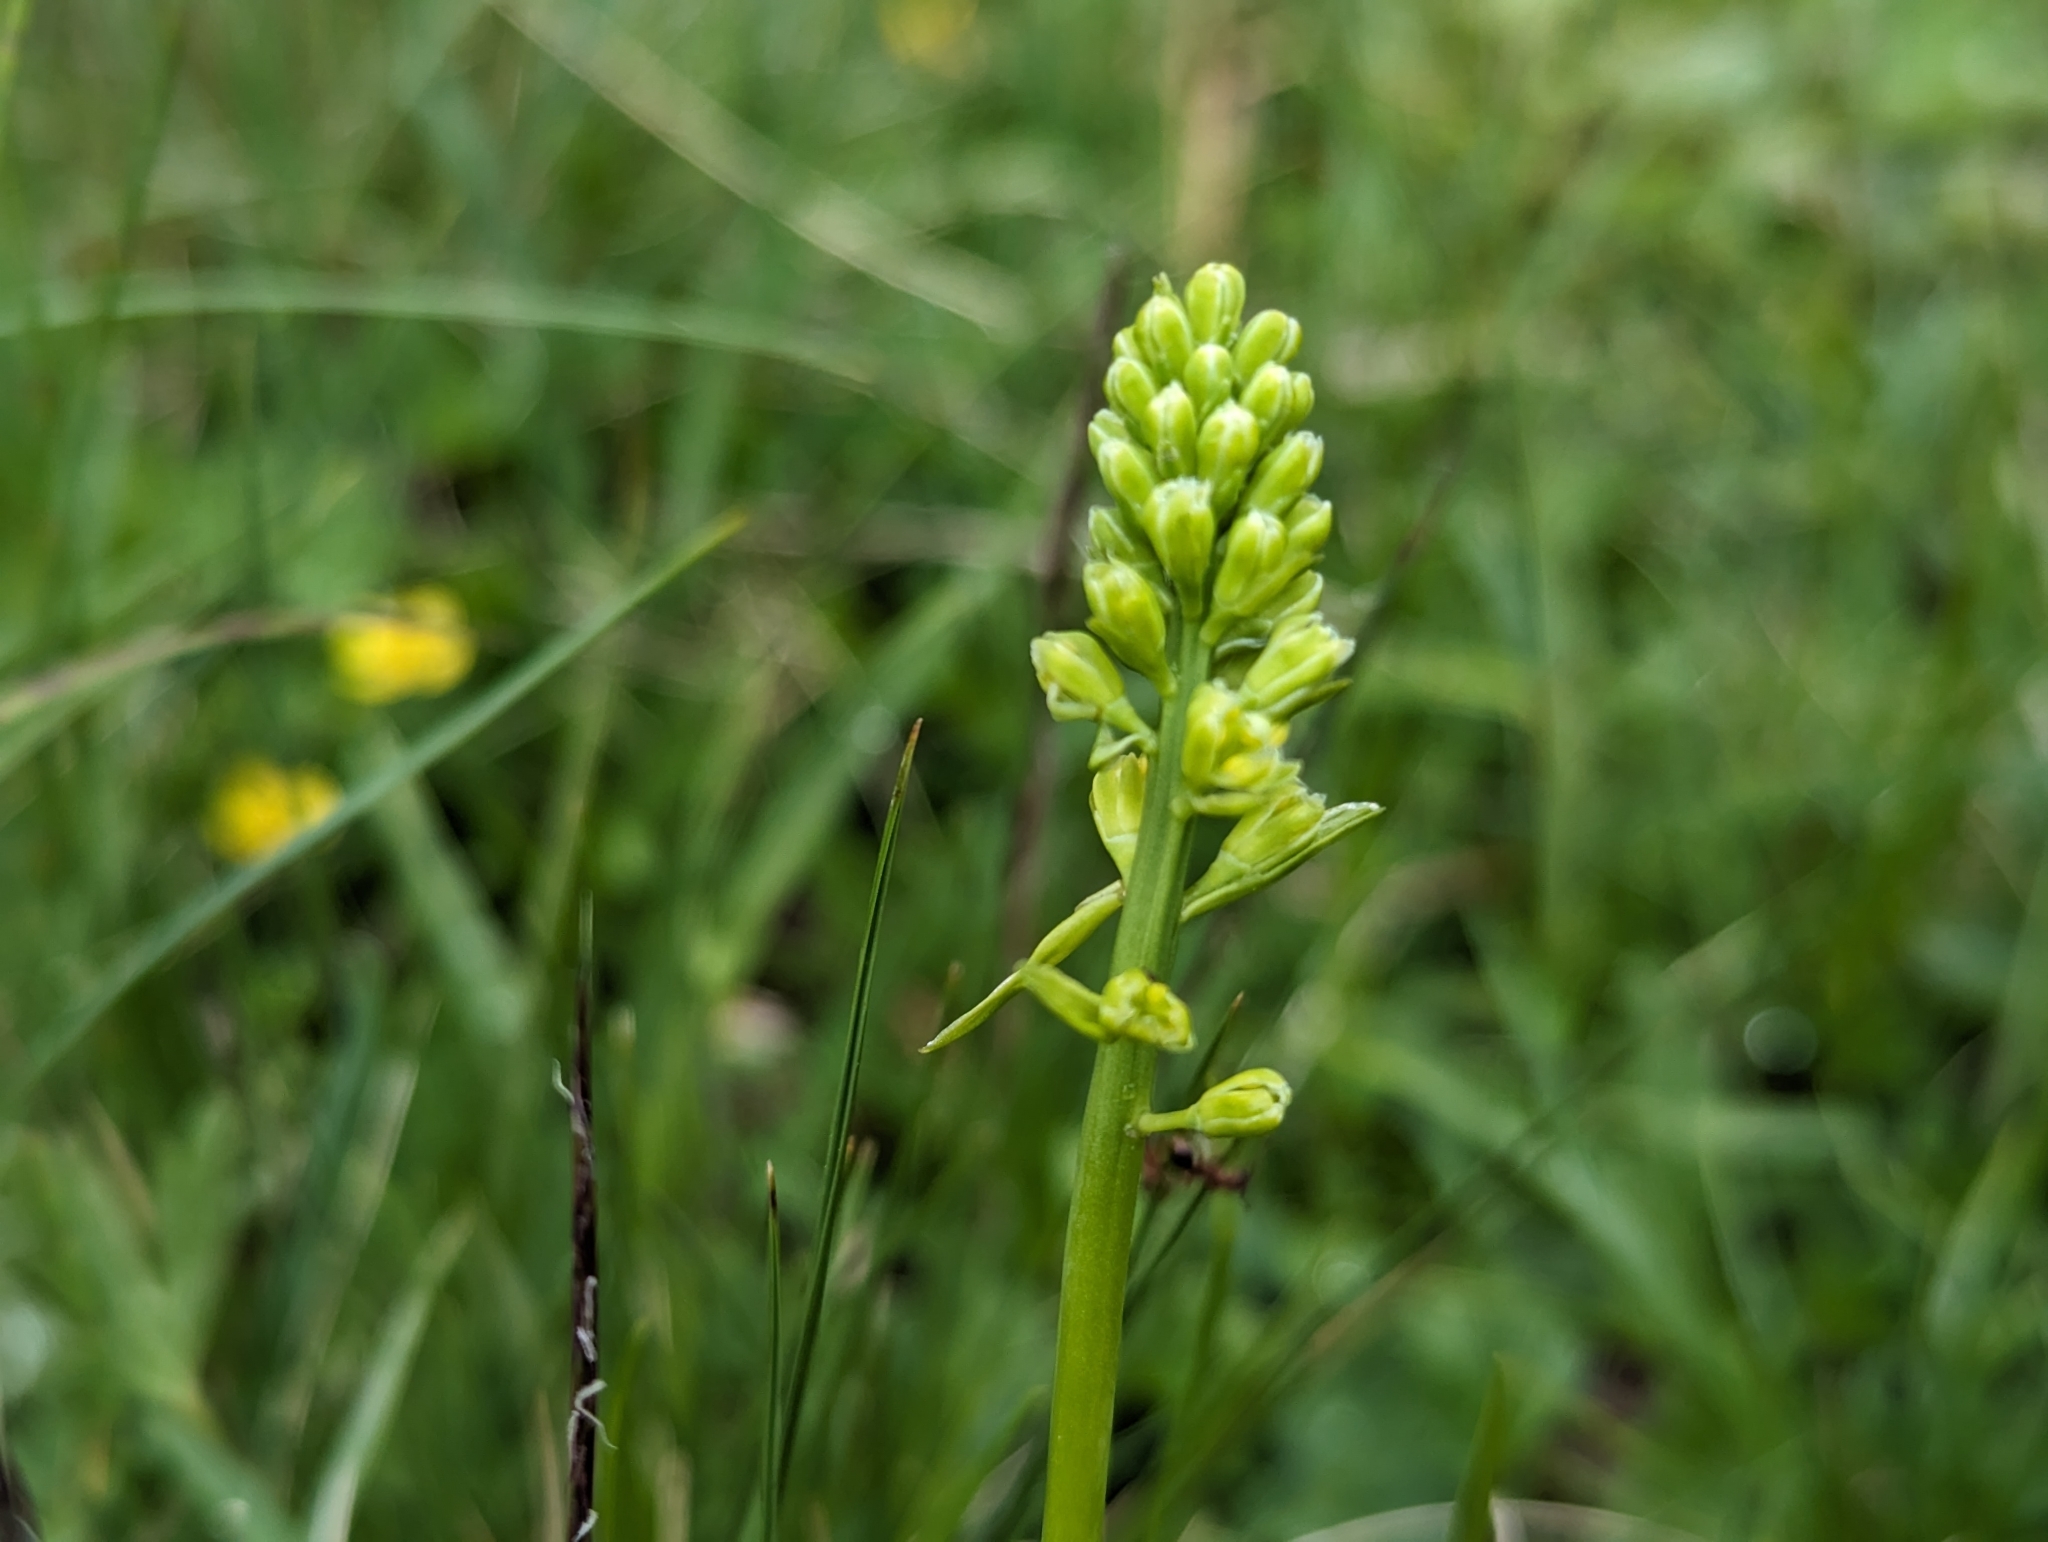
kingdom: Plantae
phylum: Tracheophyta
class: Liliopsida
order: Alismatales
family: Tofieldiaceae
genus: Tofieldia
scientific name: Tofieldia calyculata
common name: German-asphodel
